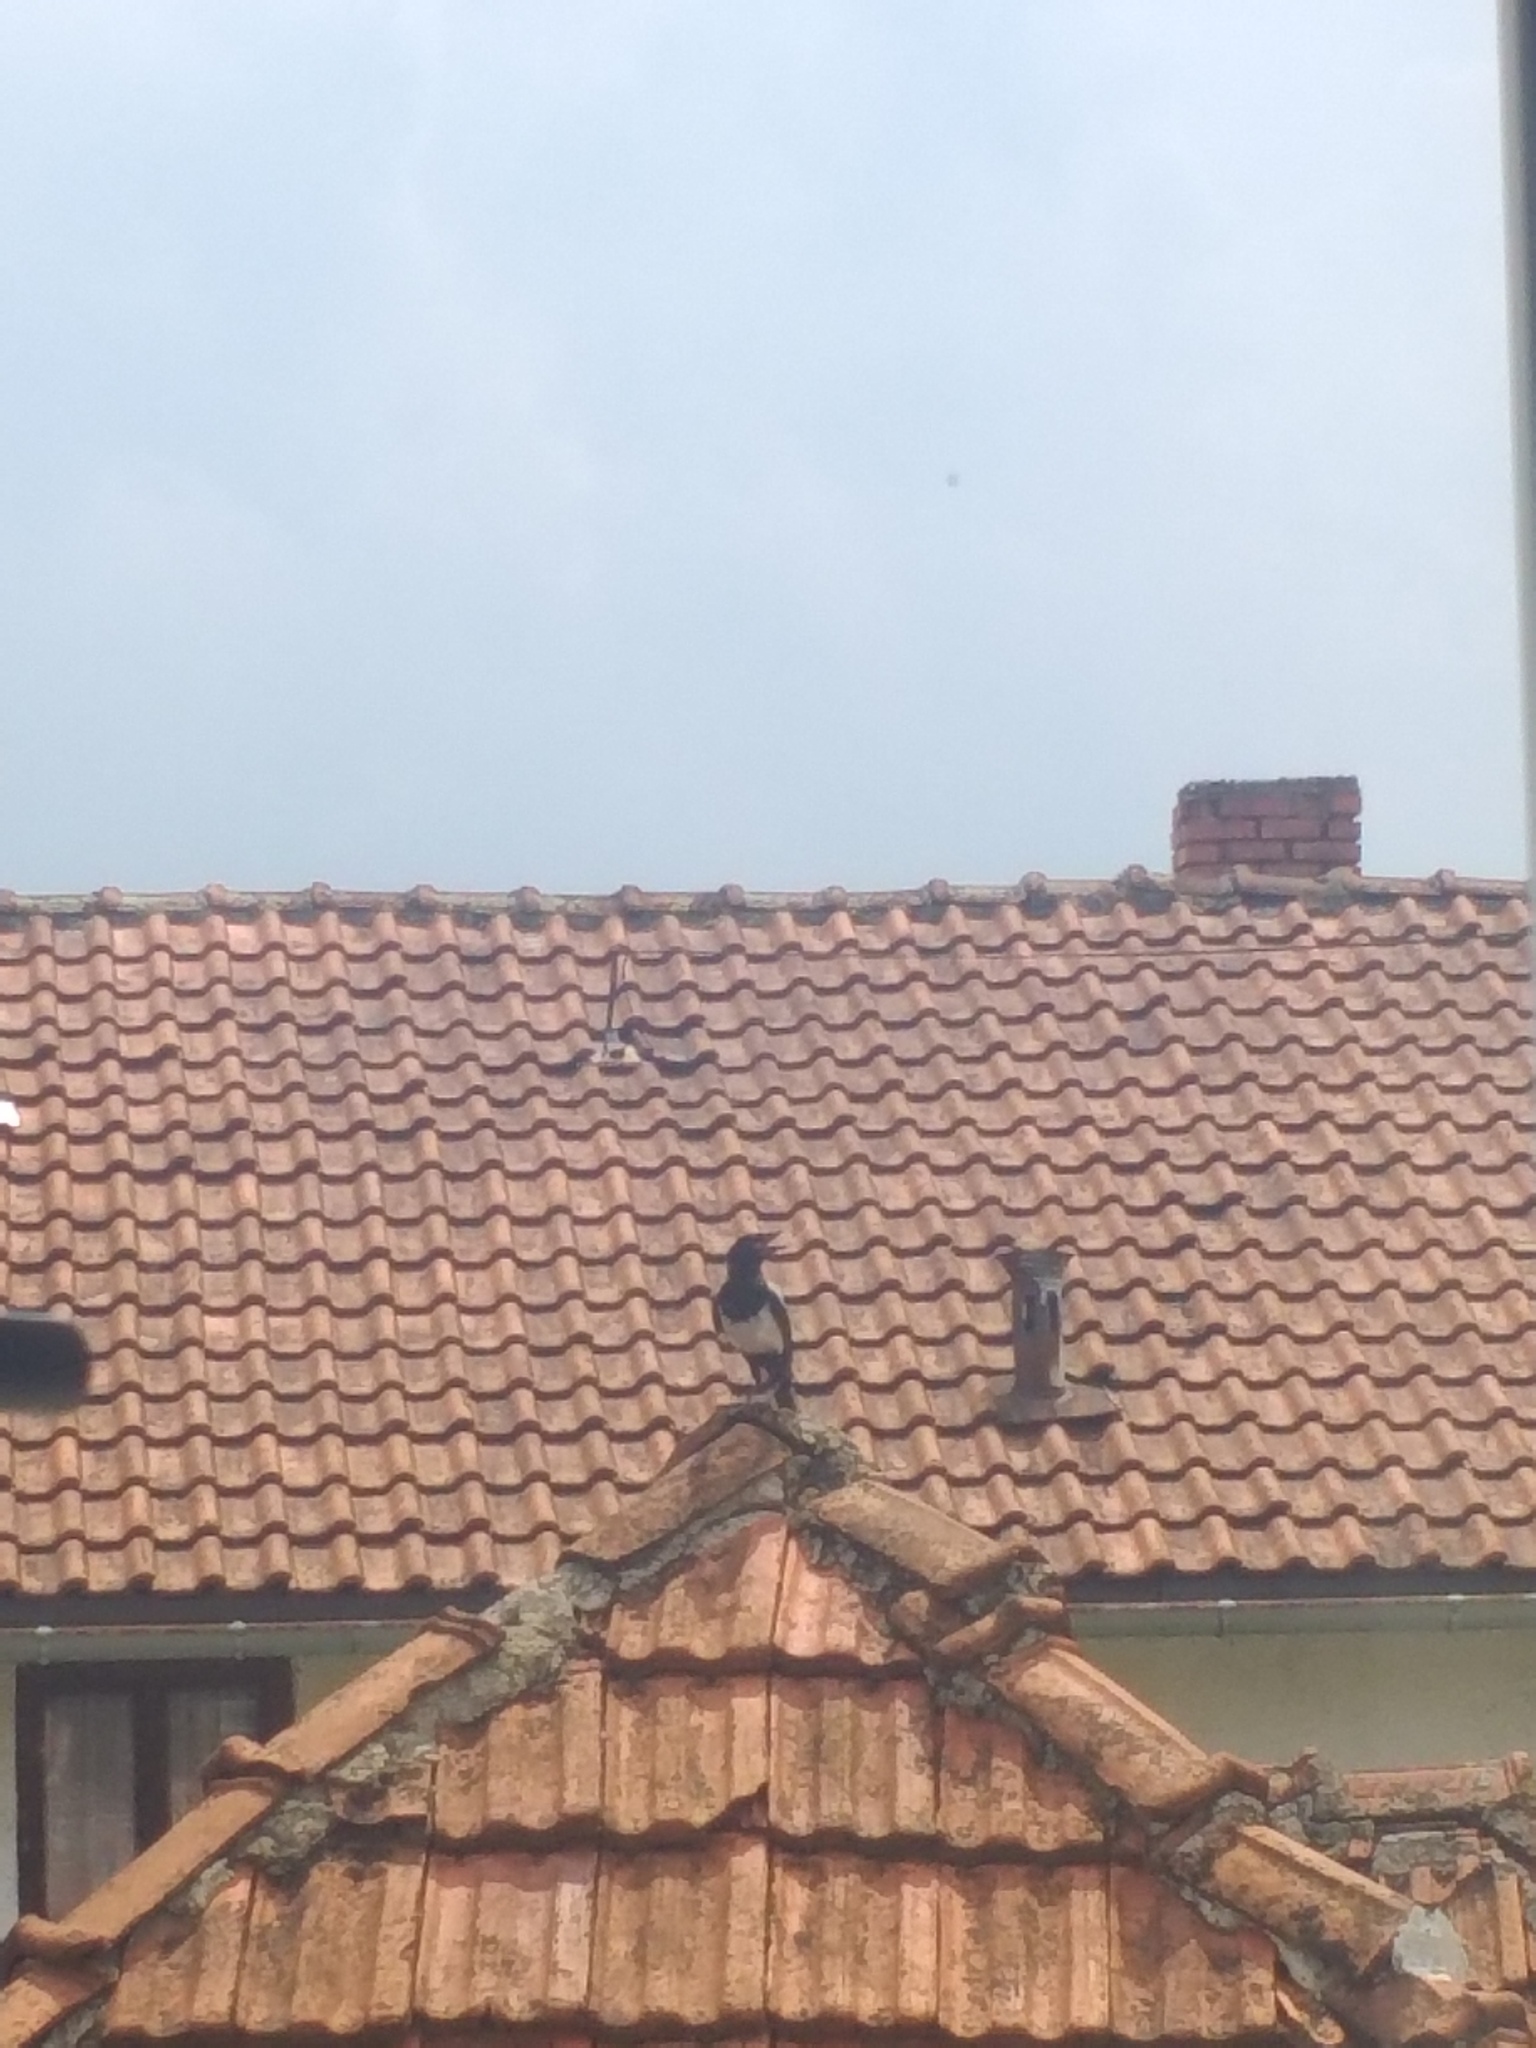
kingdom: Animalia
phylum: Chordata
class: Aves
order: Passeriformes
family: Corvidae
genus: Pica
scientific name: Pica pica
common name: Eurasian magpie
